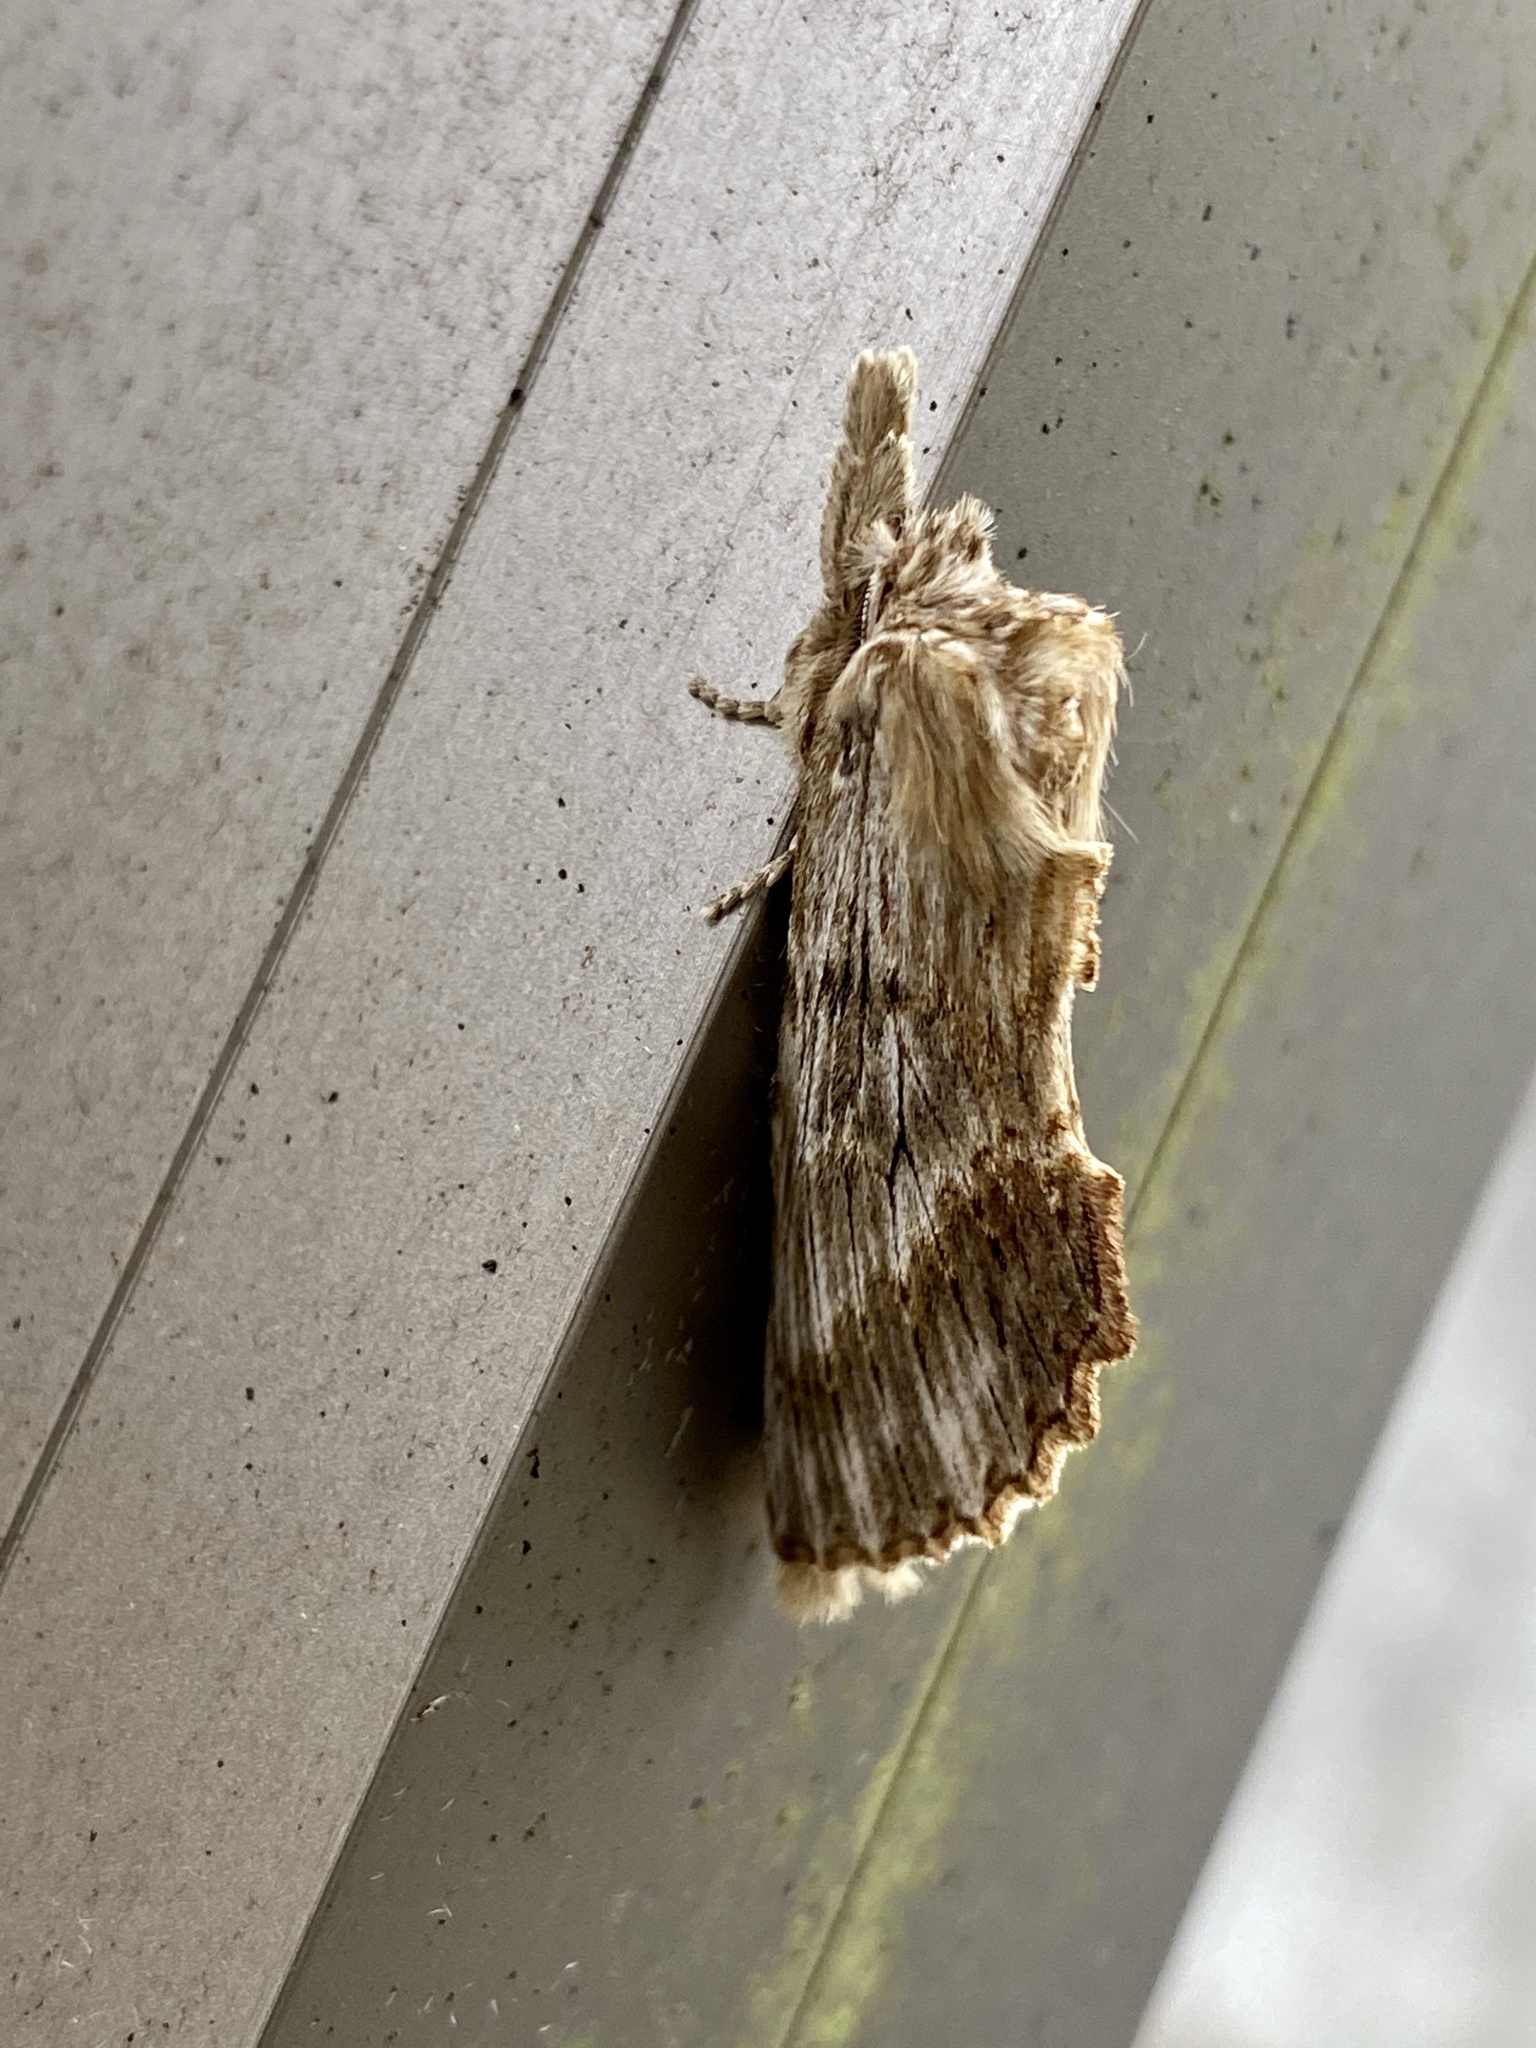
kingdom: Animalia
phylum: Arthropoda
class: Insecta
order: Lepidoptera
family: Notodontidae
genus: Pterostoma
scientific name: Pterostoma gigantina
